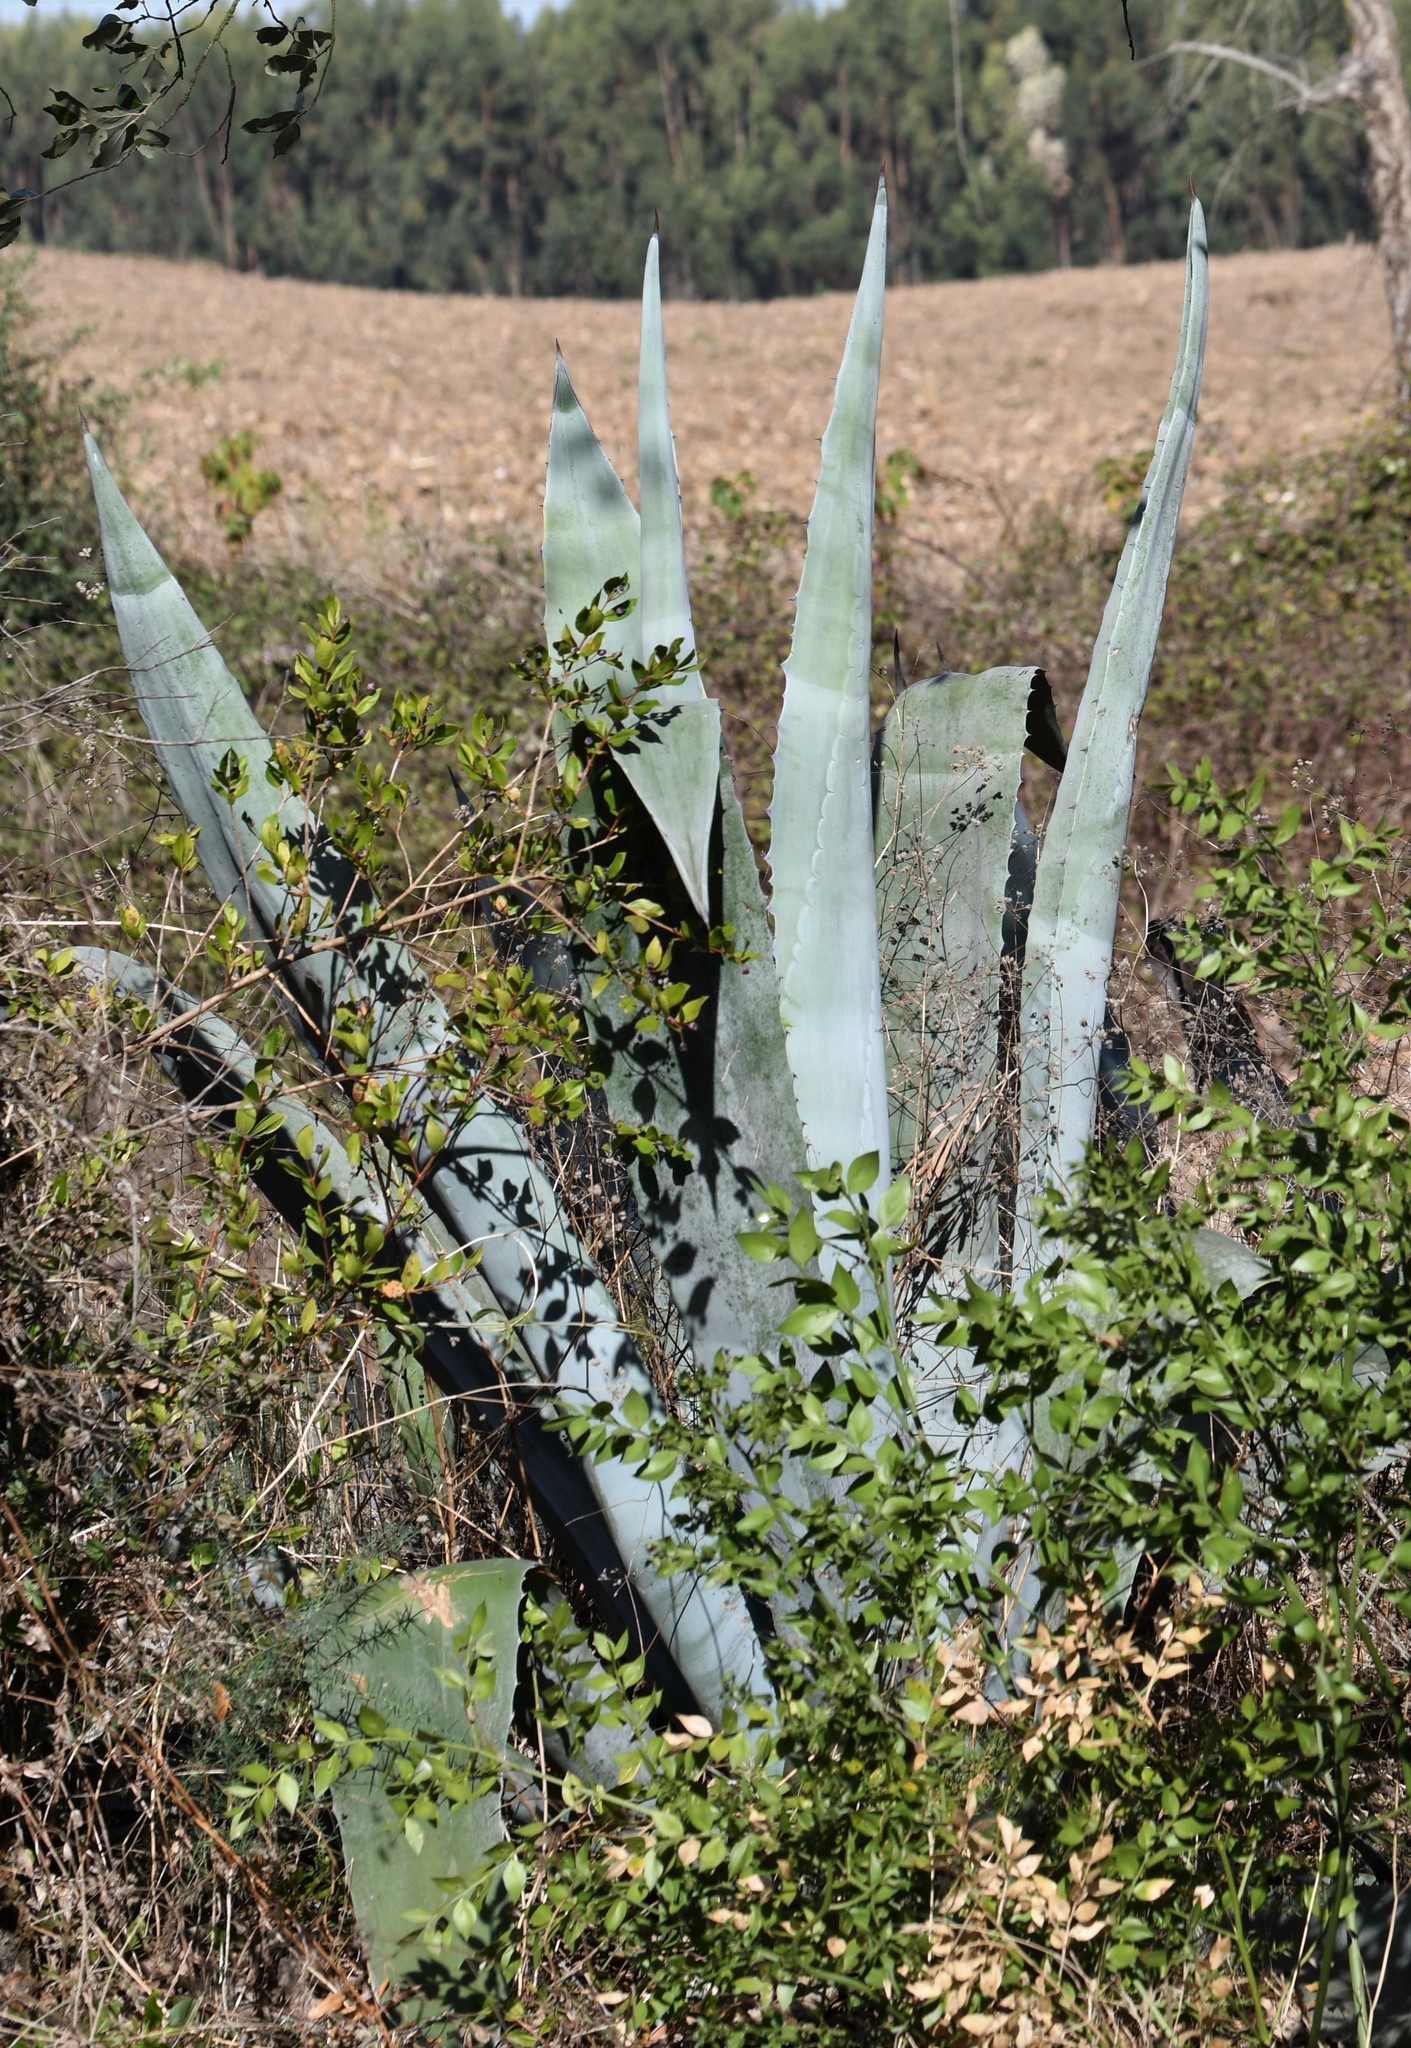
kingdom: Plantae
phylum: Tracheophyta
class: Liliopsida
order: Asparagales
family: Asparagaceae
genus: Agave
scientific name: Agave americana
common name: Centuryplant
